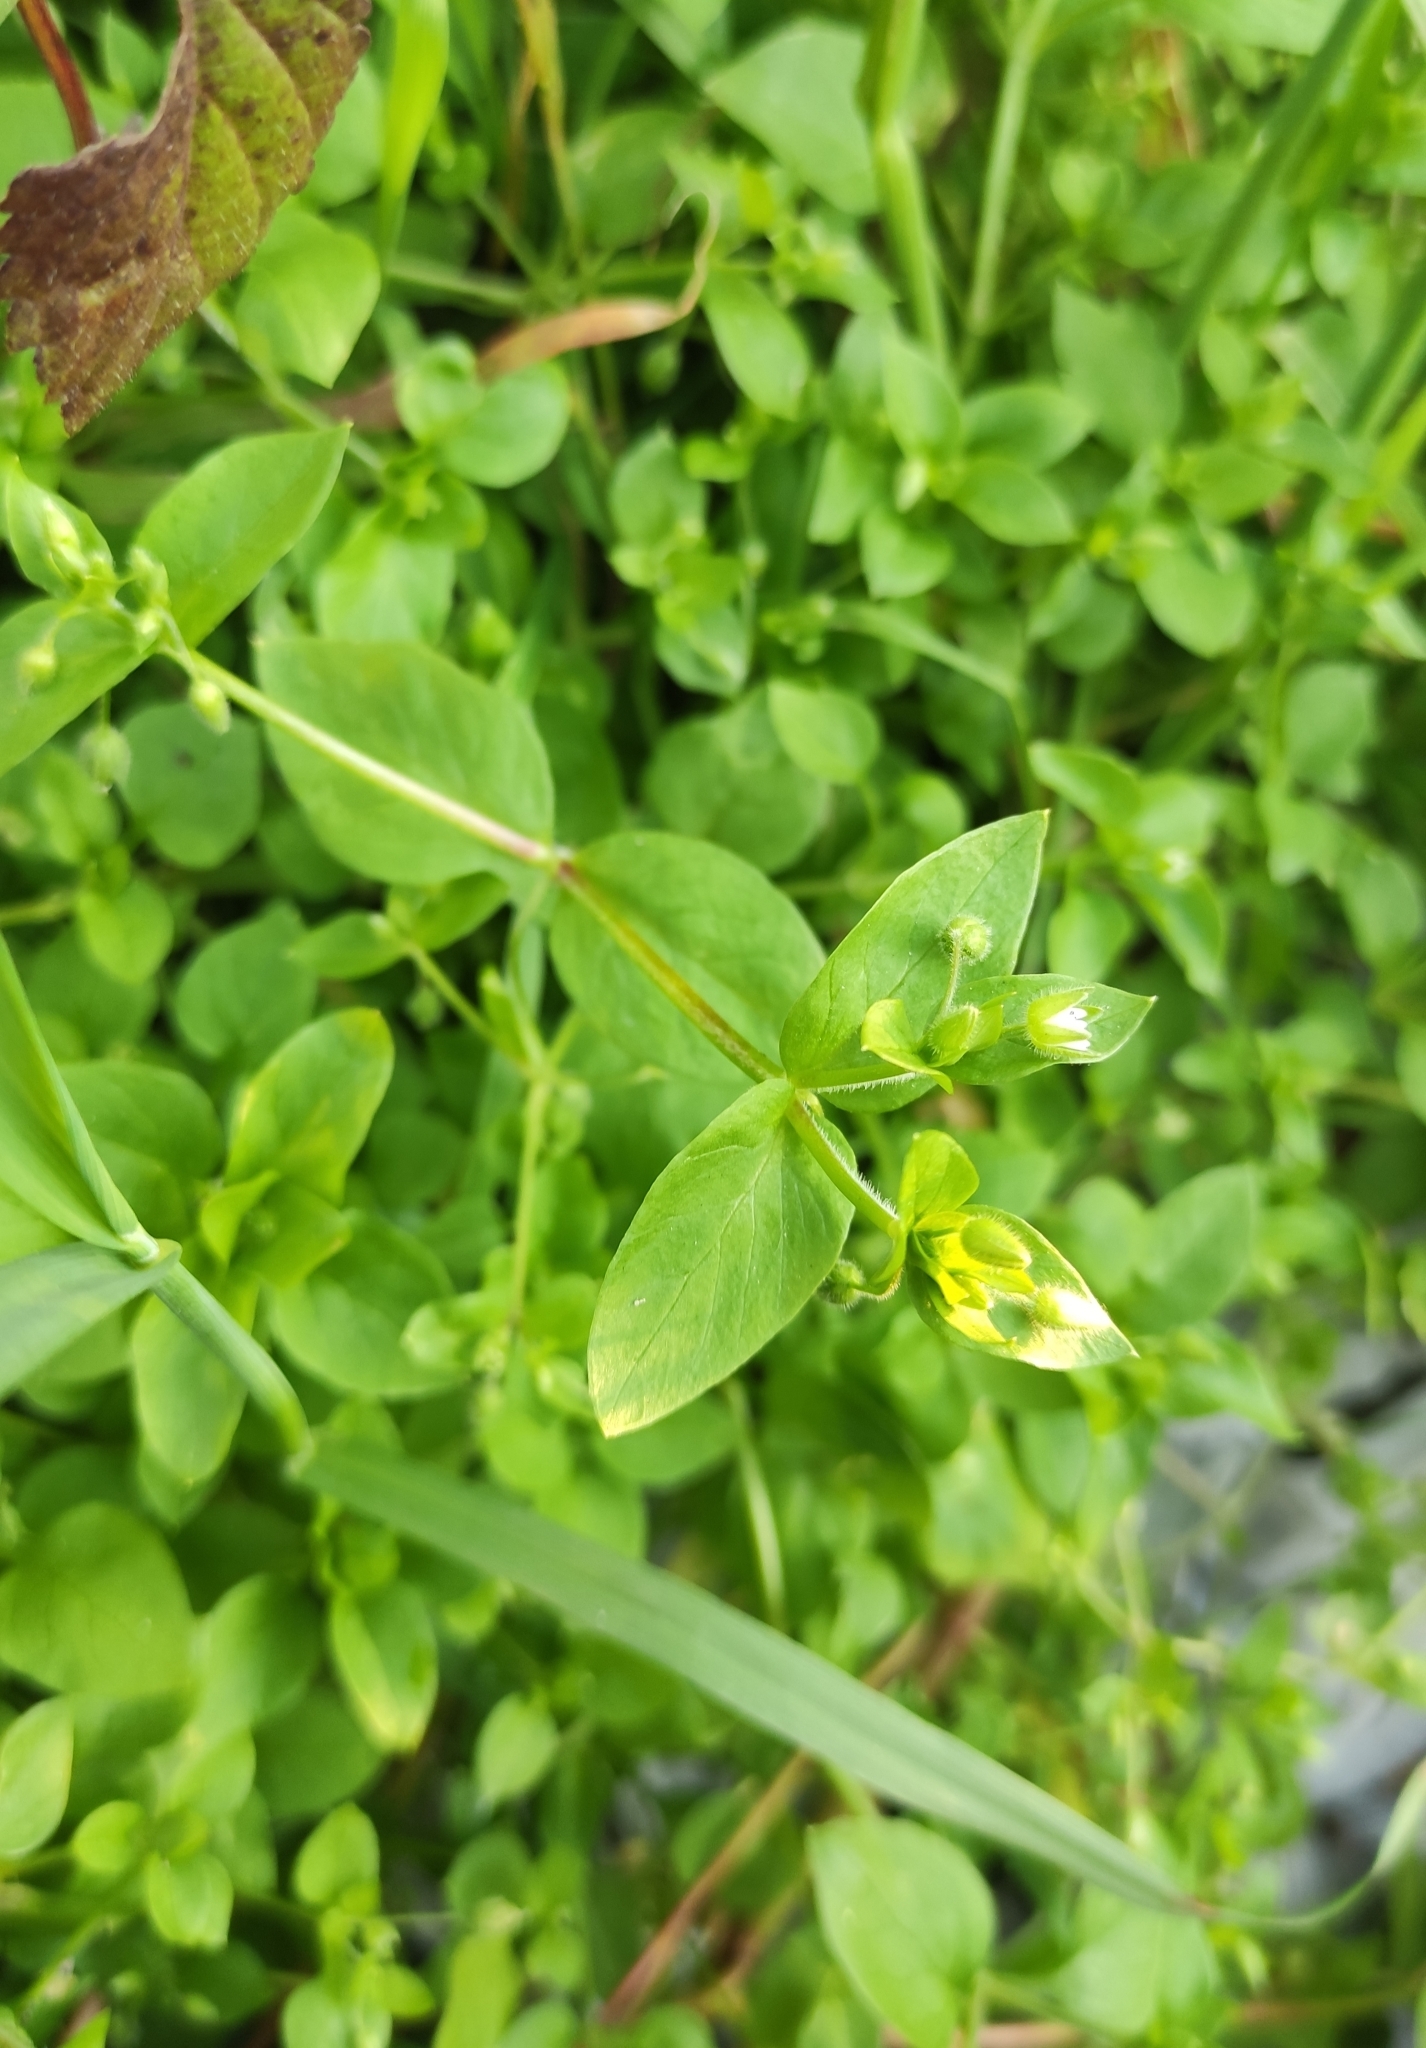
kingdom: Plantae
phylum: Tracheophyta
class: Magnoliopsida
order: Caryophyllales
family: Caryophyllaceae
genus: Stellaria
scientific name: Stellaria media
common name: Common chickweed
